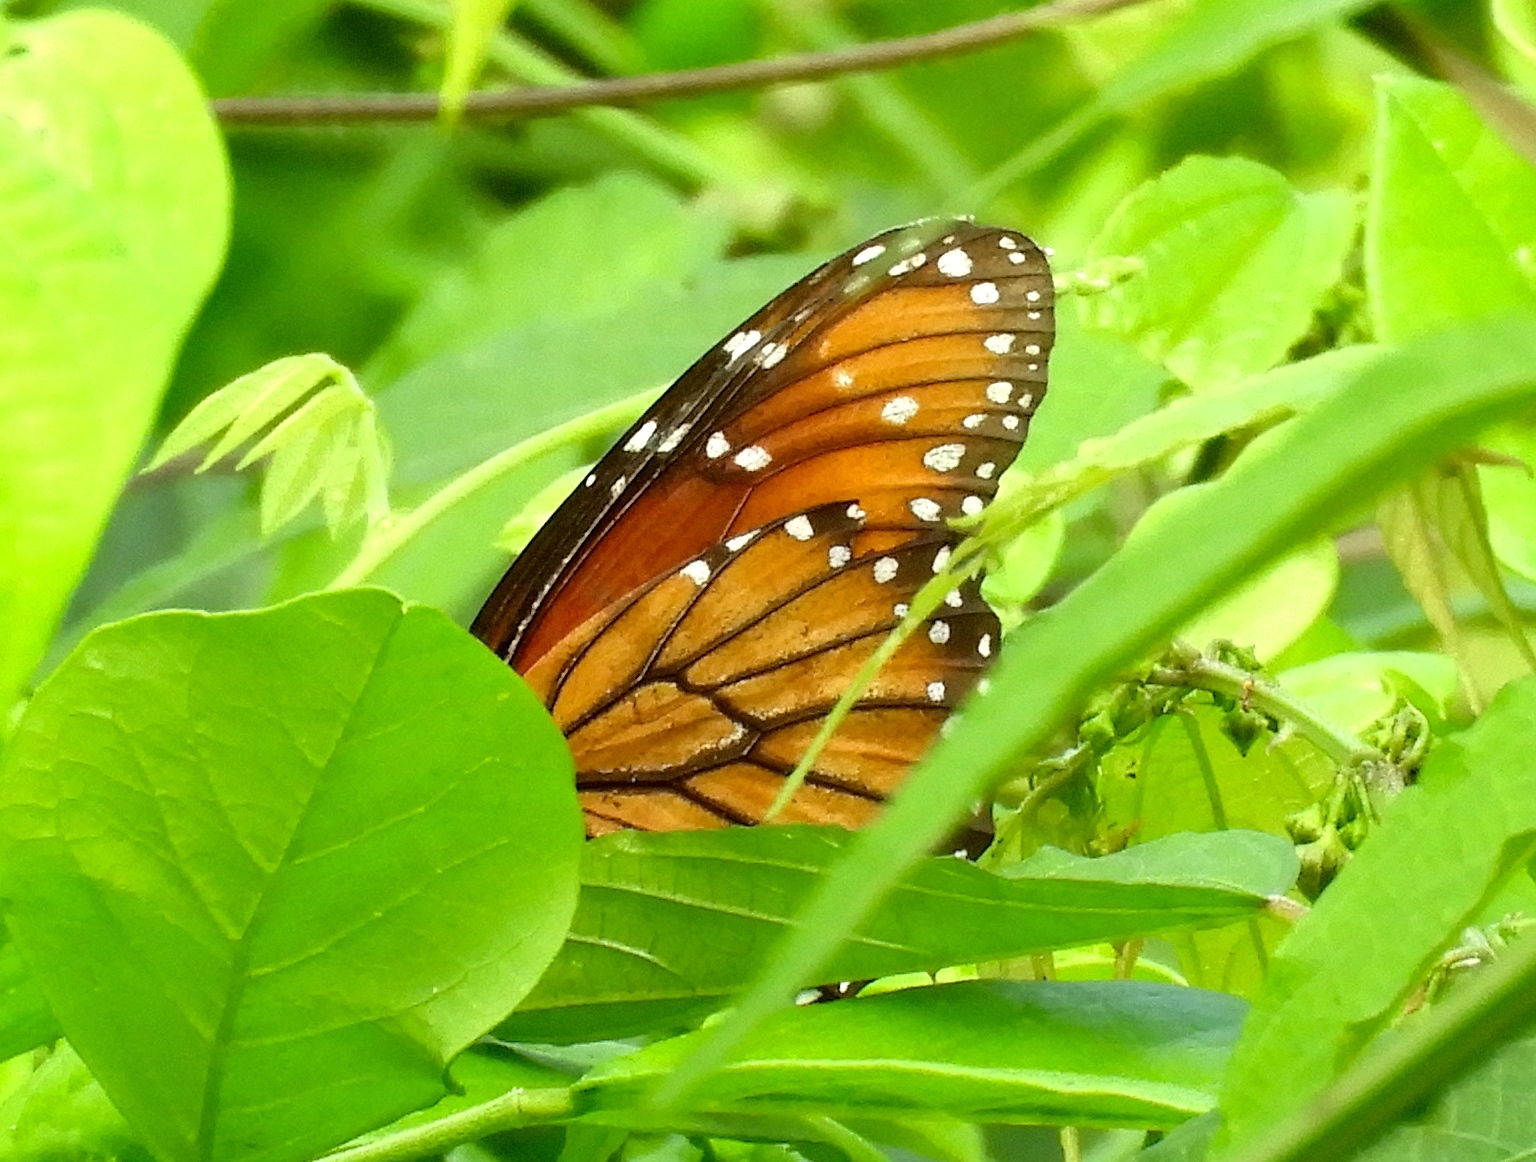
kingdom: Animalia
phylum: Arthropoda
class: Insecta
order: Lepidoptera
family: Nymphalidae
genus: Danaus
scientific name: Danaus eresimus
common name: Soldier
